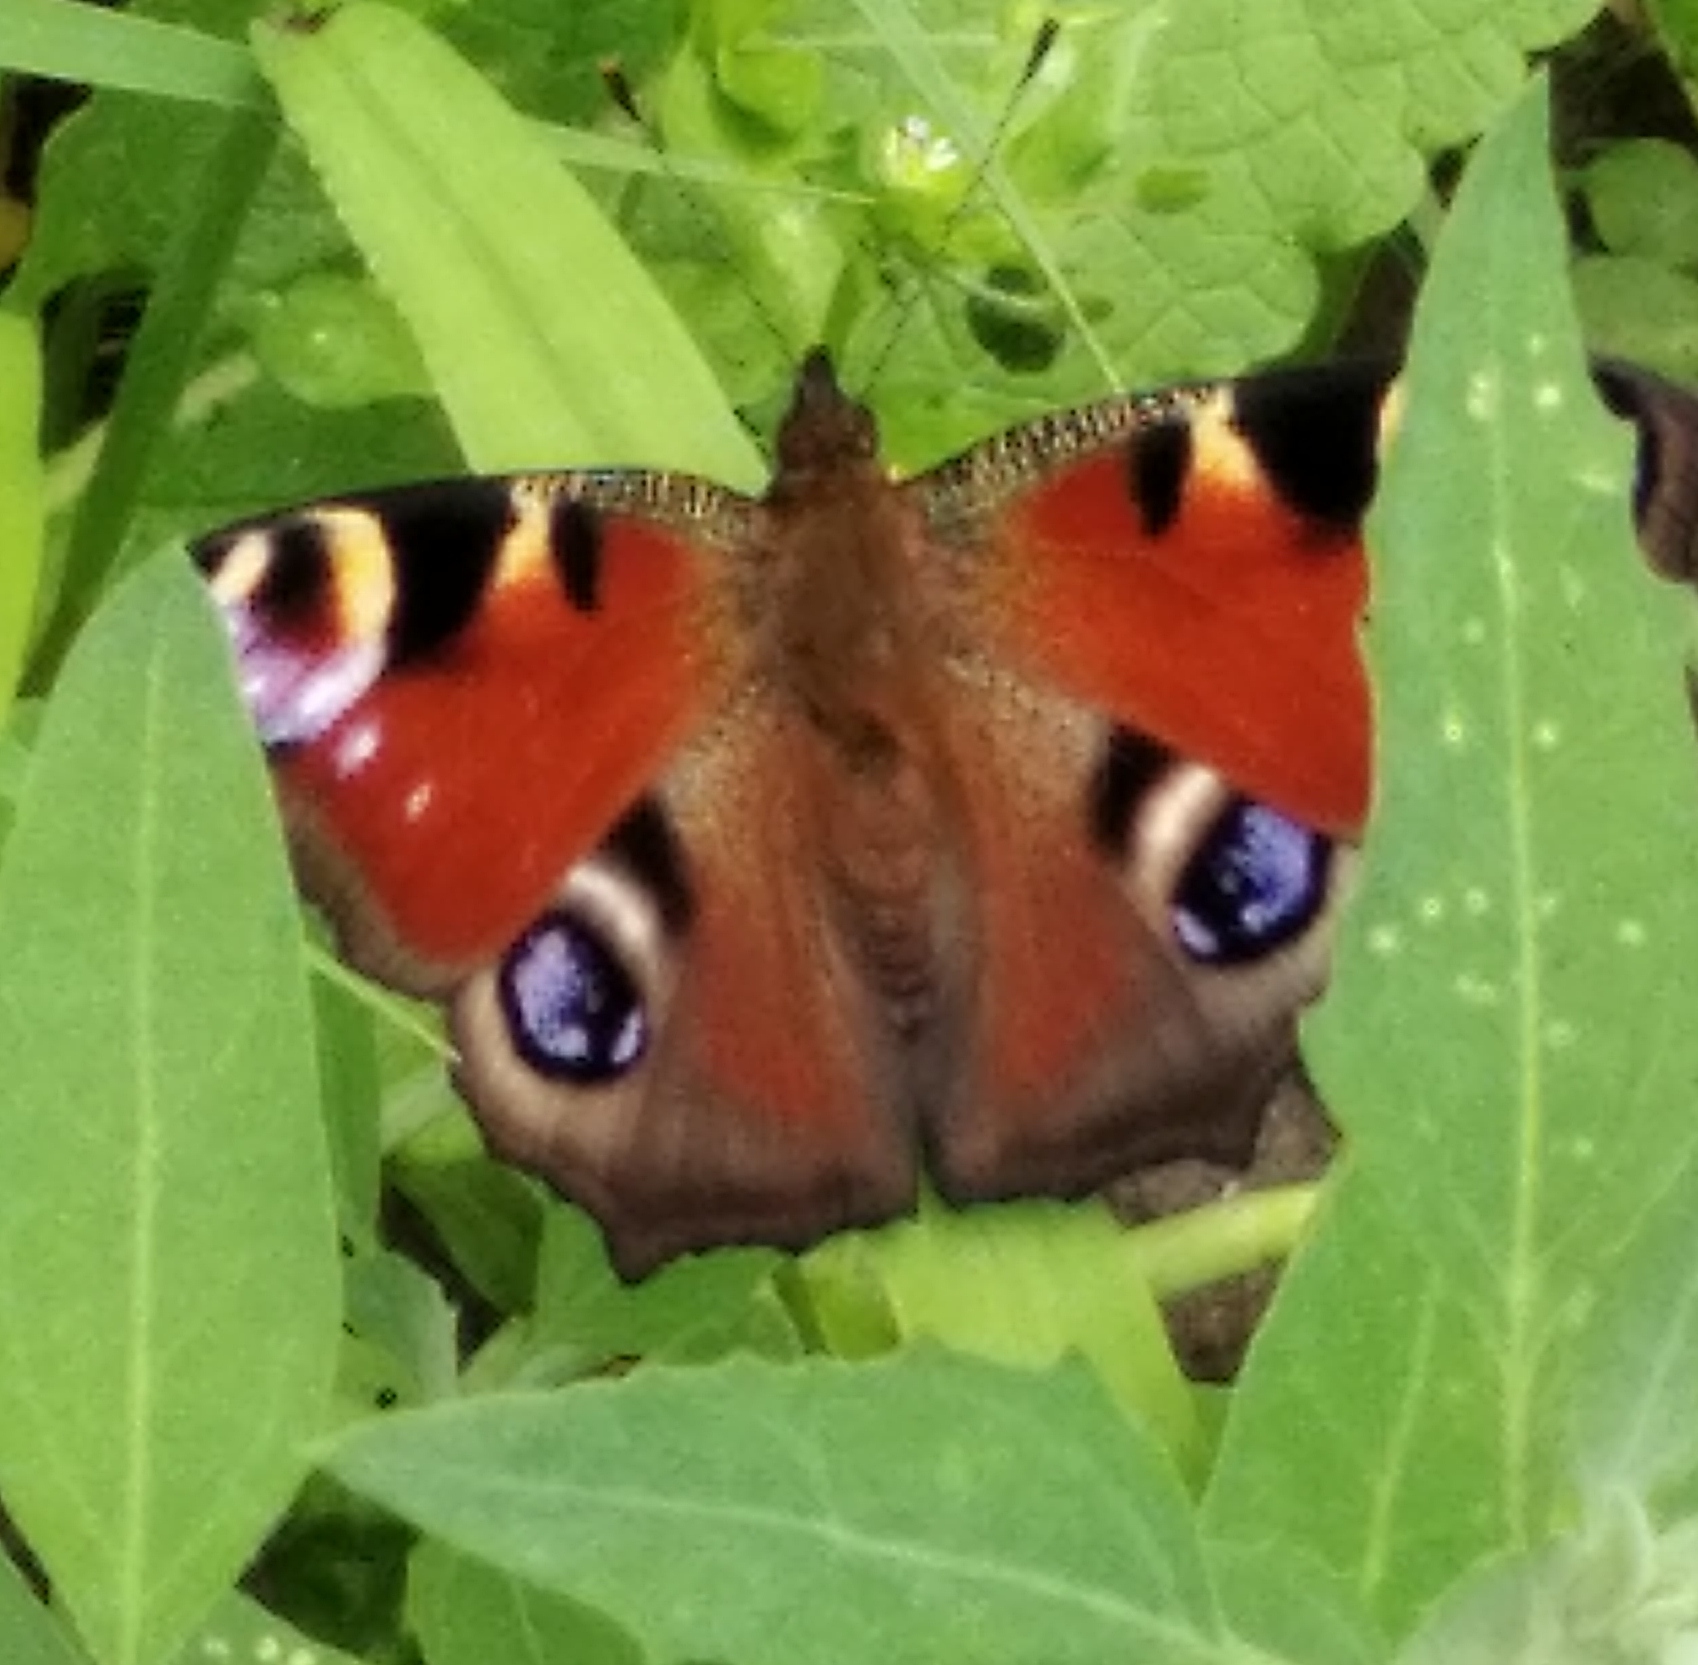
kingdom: Animalia
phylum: Arthropoda
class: Insecta
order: Lepidoptera
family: Nymphalidae
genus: Aglais
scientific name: Aglais io
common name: Peacock
